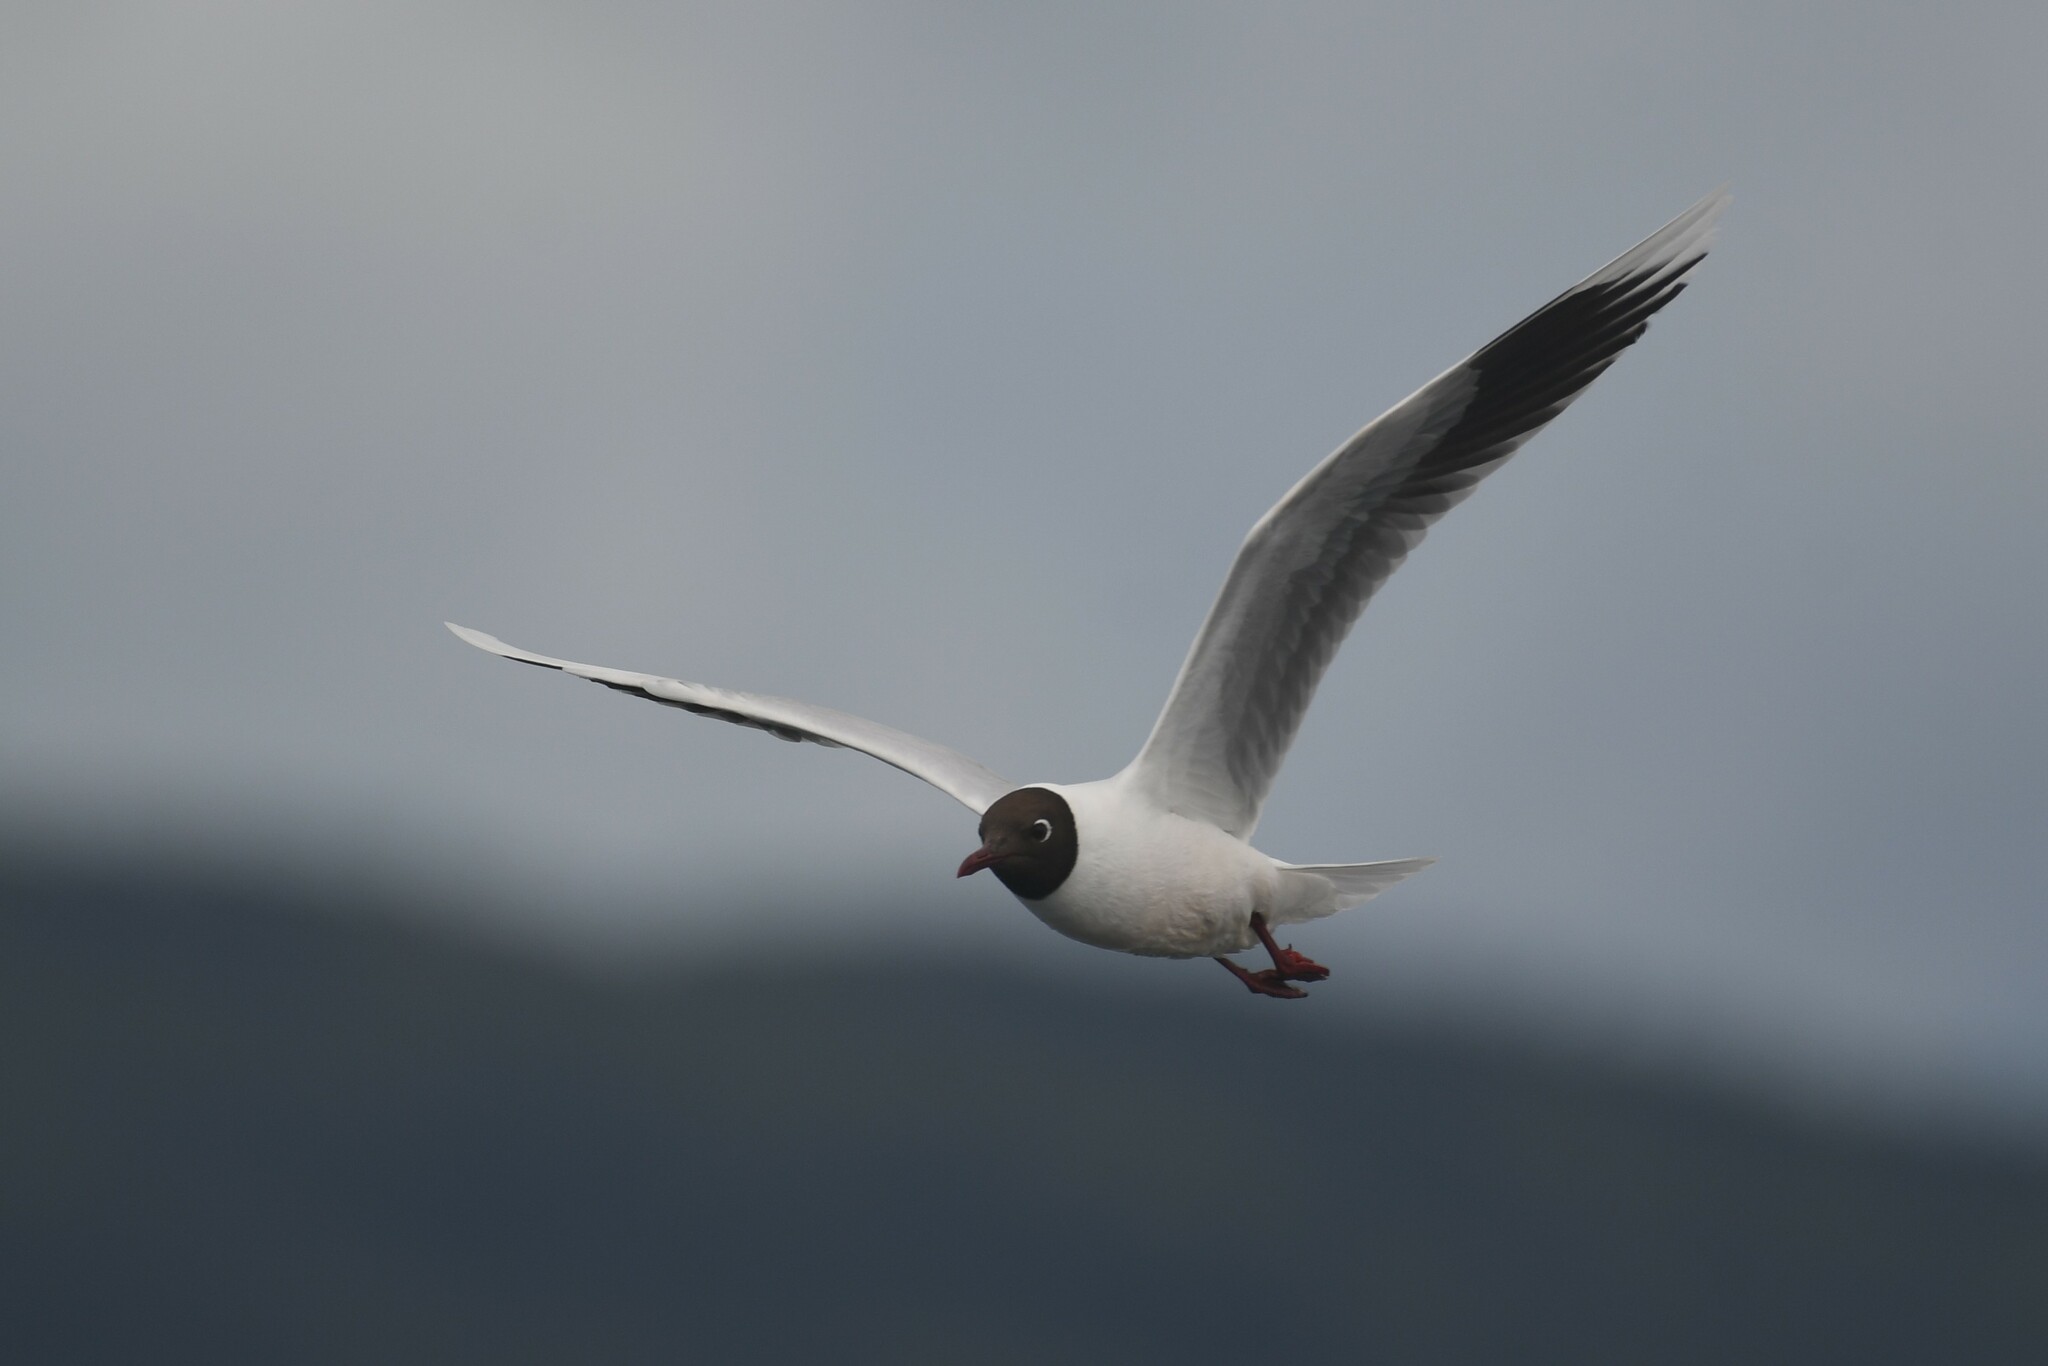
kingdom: Animalia
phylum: Chordata
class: Aves
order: Charadriiformes
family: Laridae
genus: Chroicocephalus
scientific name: Chroicocephalus maculipennis
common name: Brown-hooded gull
